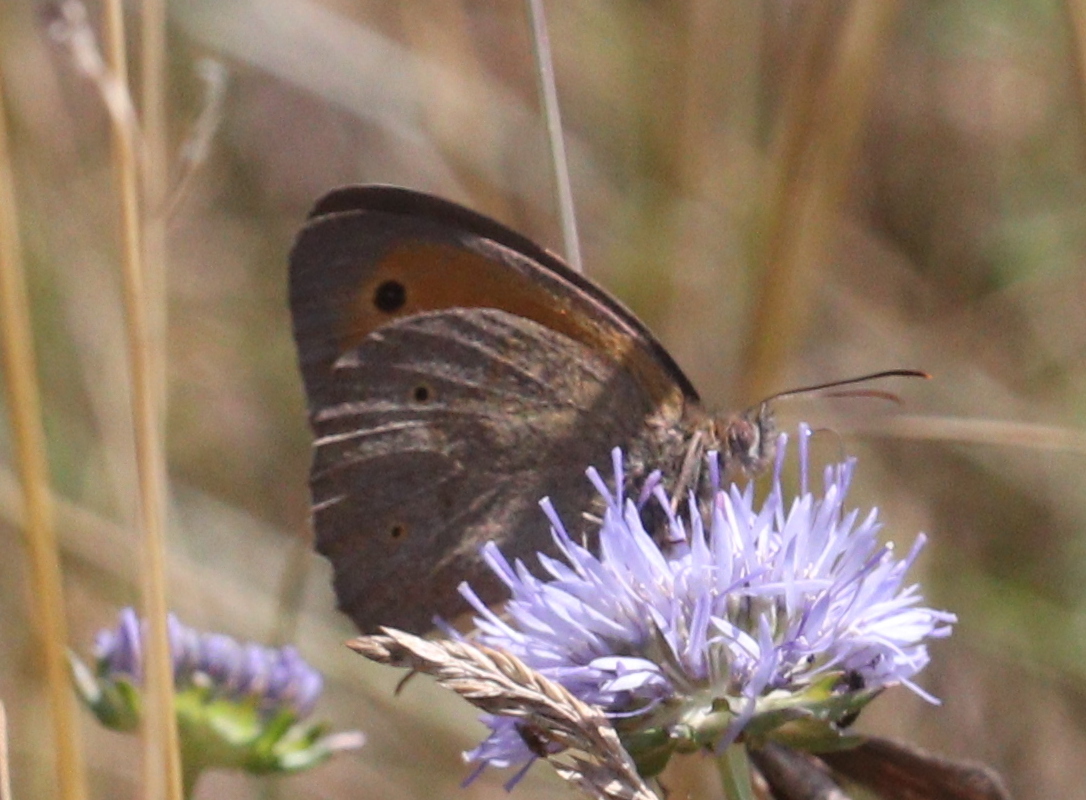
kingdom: Animalia
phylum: Arthropoda
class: Insecta
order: Lepidoptera
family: Nymphalidae
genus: Maniola
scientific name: Maniola jurtina
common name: Meadow brown
